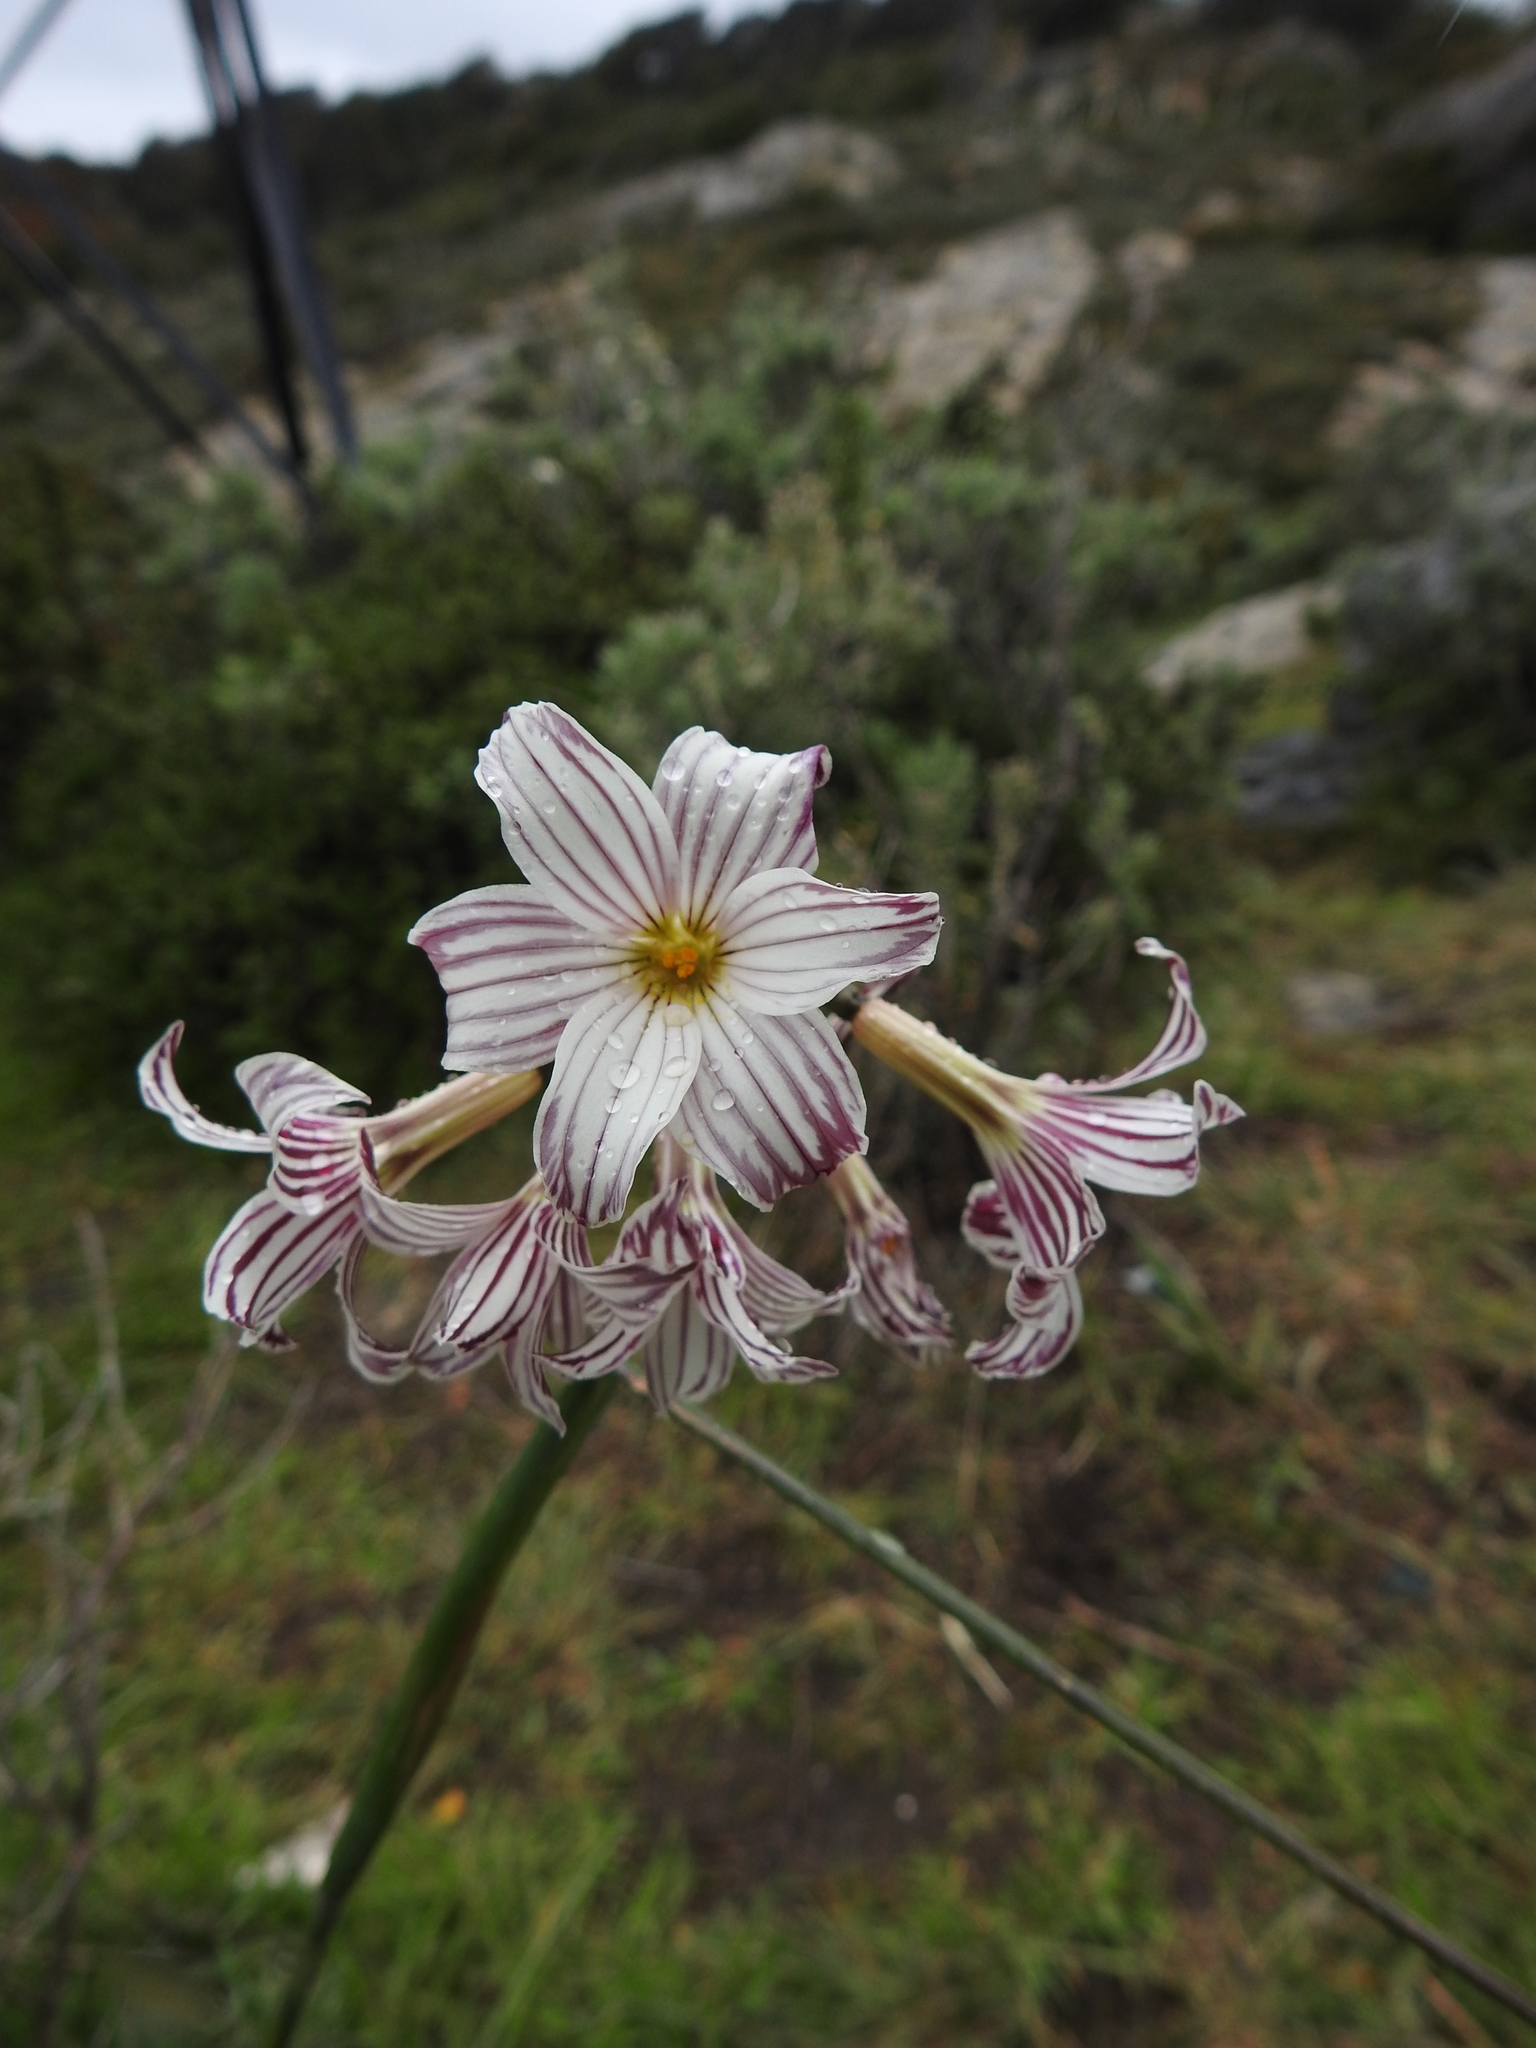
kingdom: Plantae
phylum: Tracheophyta
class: Liliopsida
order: Asparagales
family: Iridaceae
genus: Olsynium
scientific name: Olsynium biflorum
